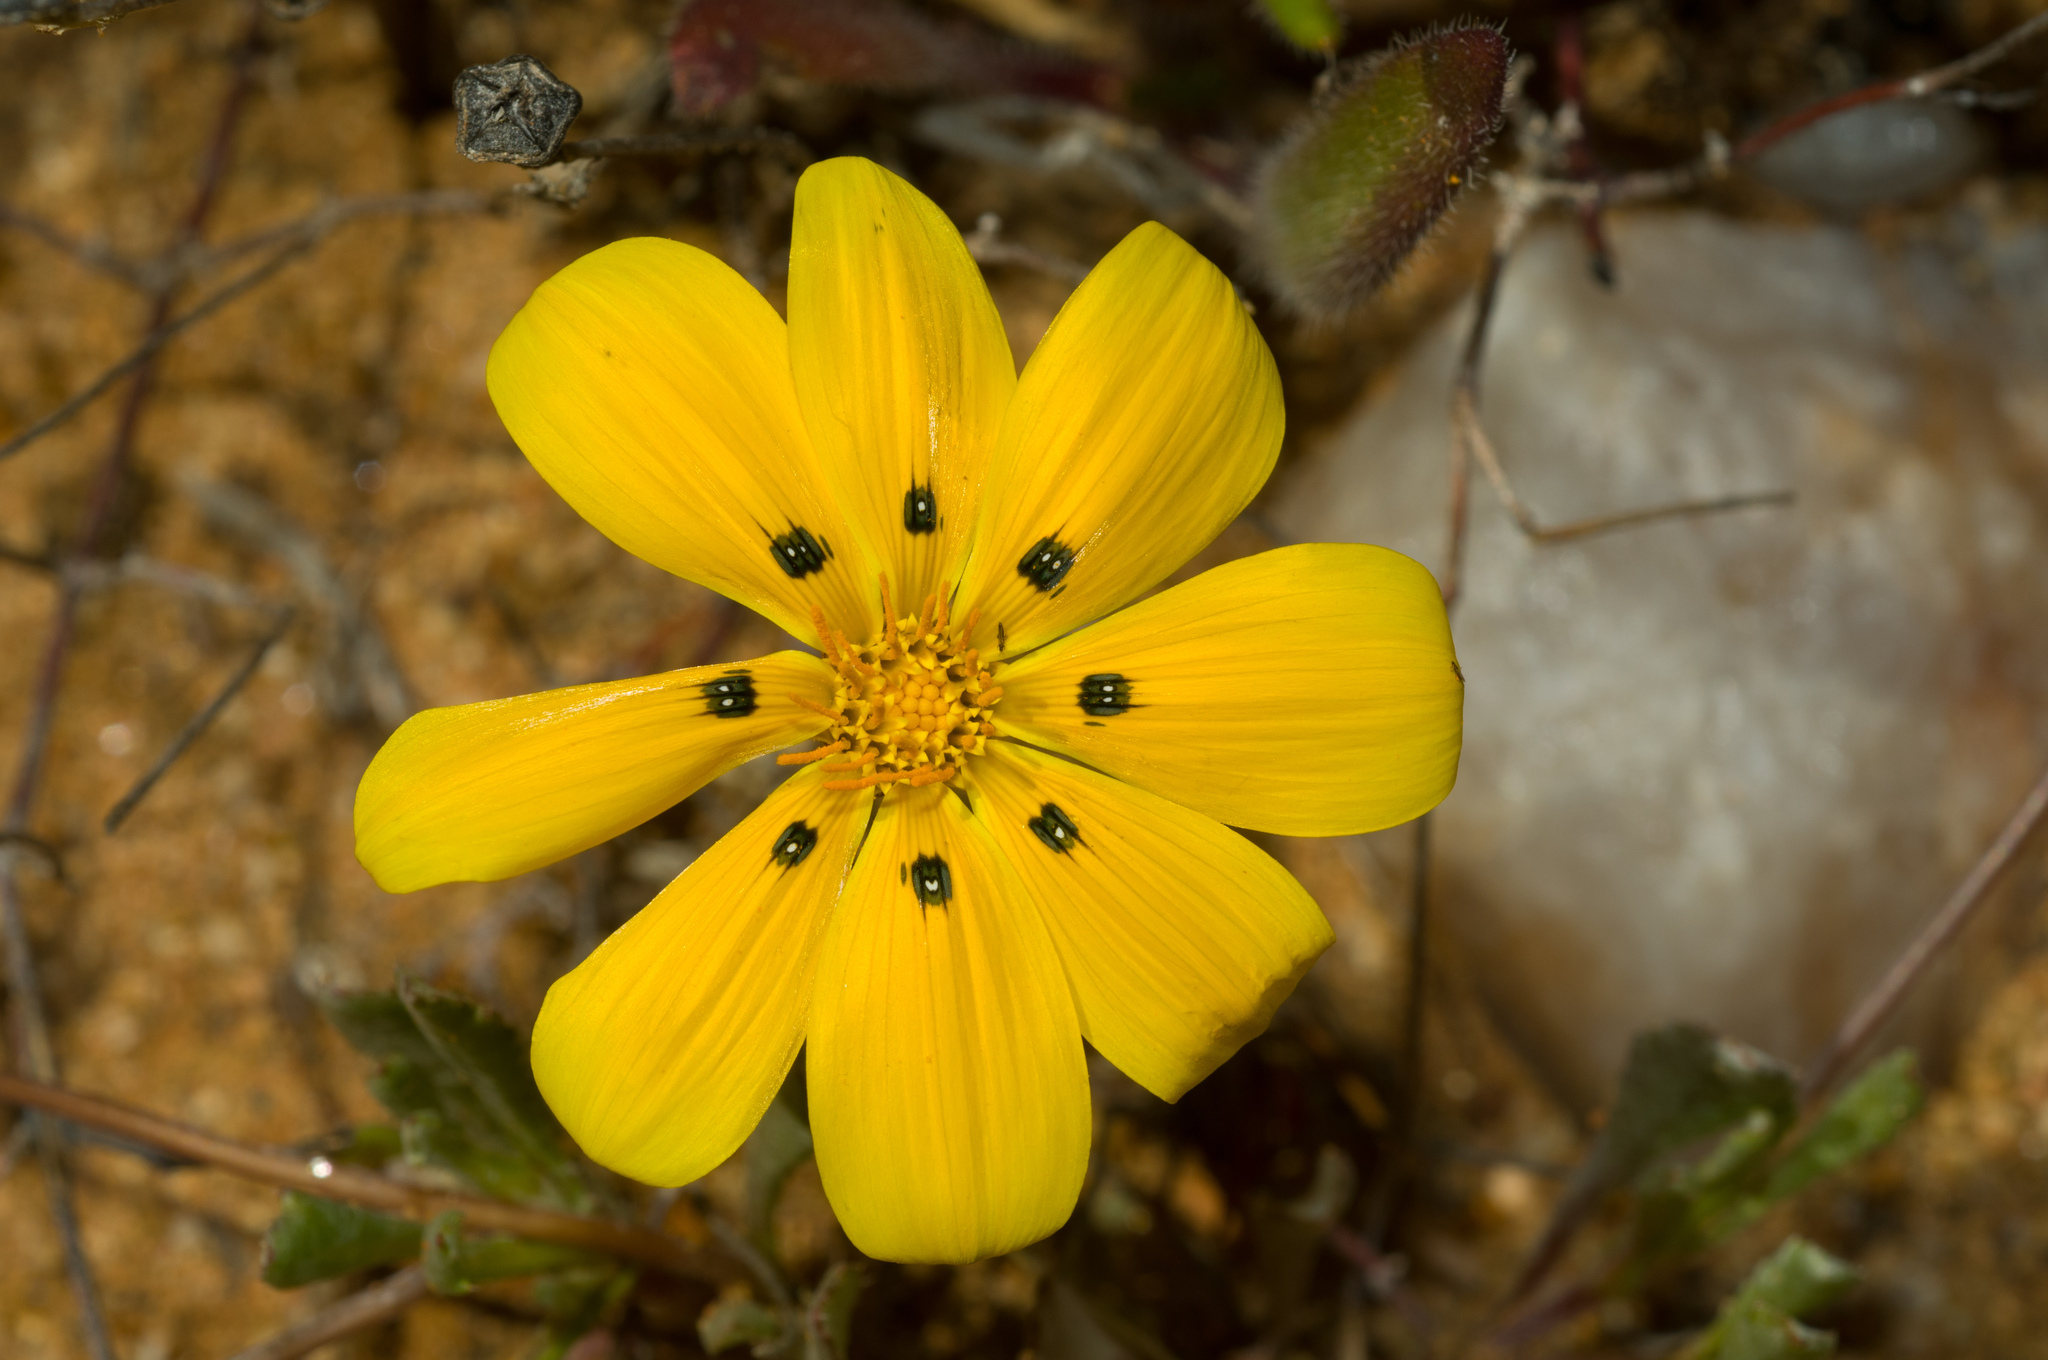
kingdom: Plantae
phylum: Tracheophyta
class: Magnoliopsida
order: Asterales
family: Asteraceae
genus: Gazania
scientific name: Gazania lichtensteinii
